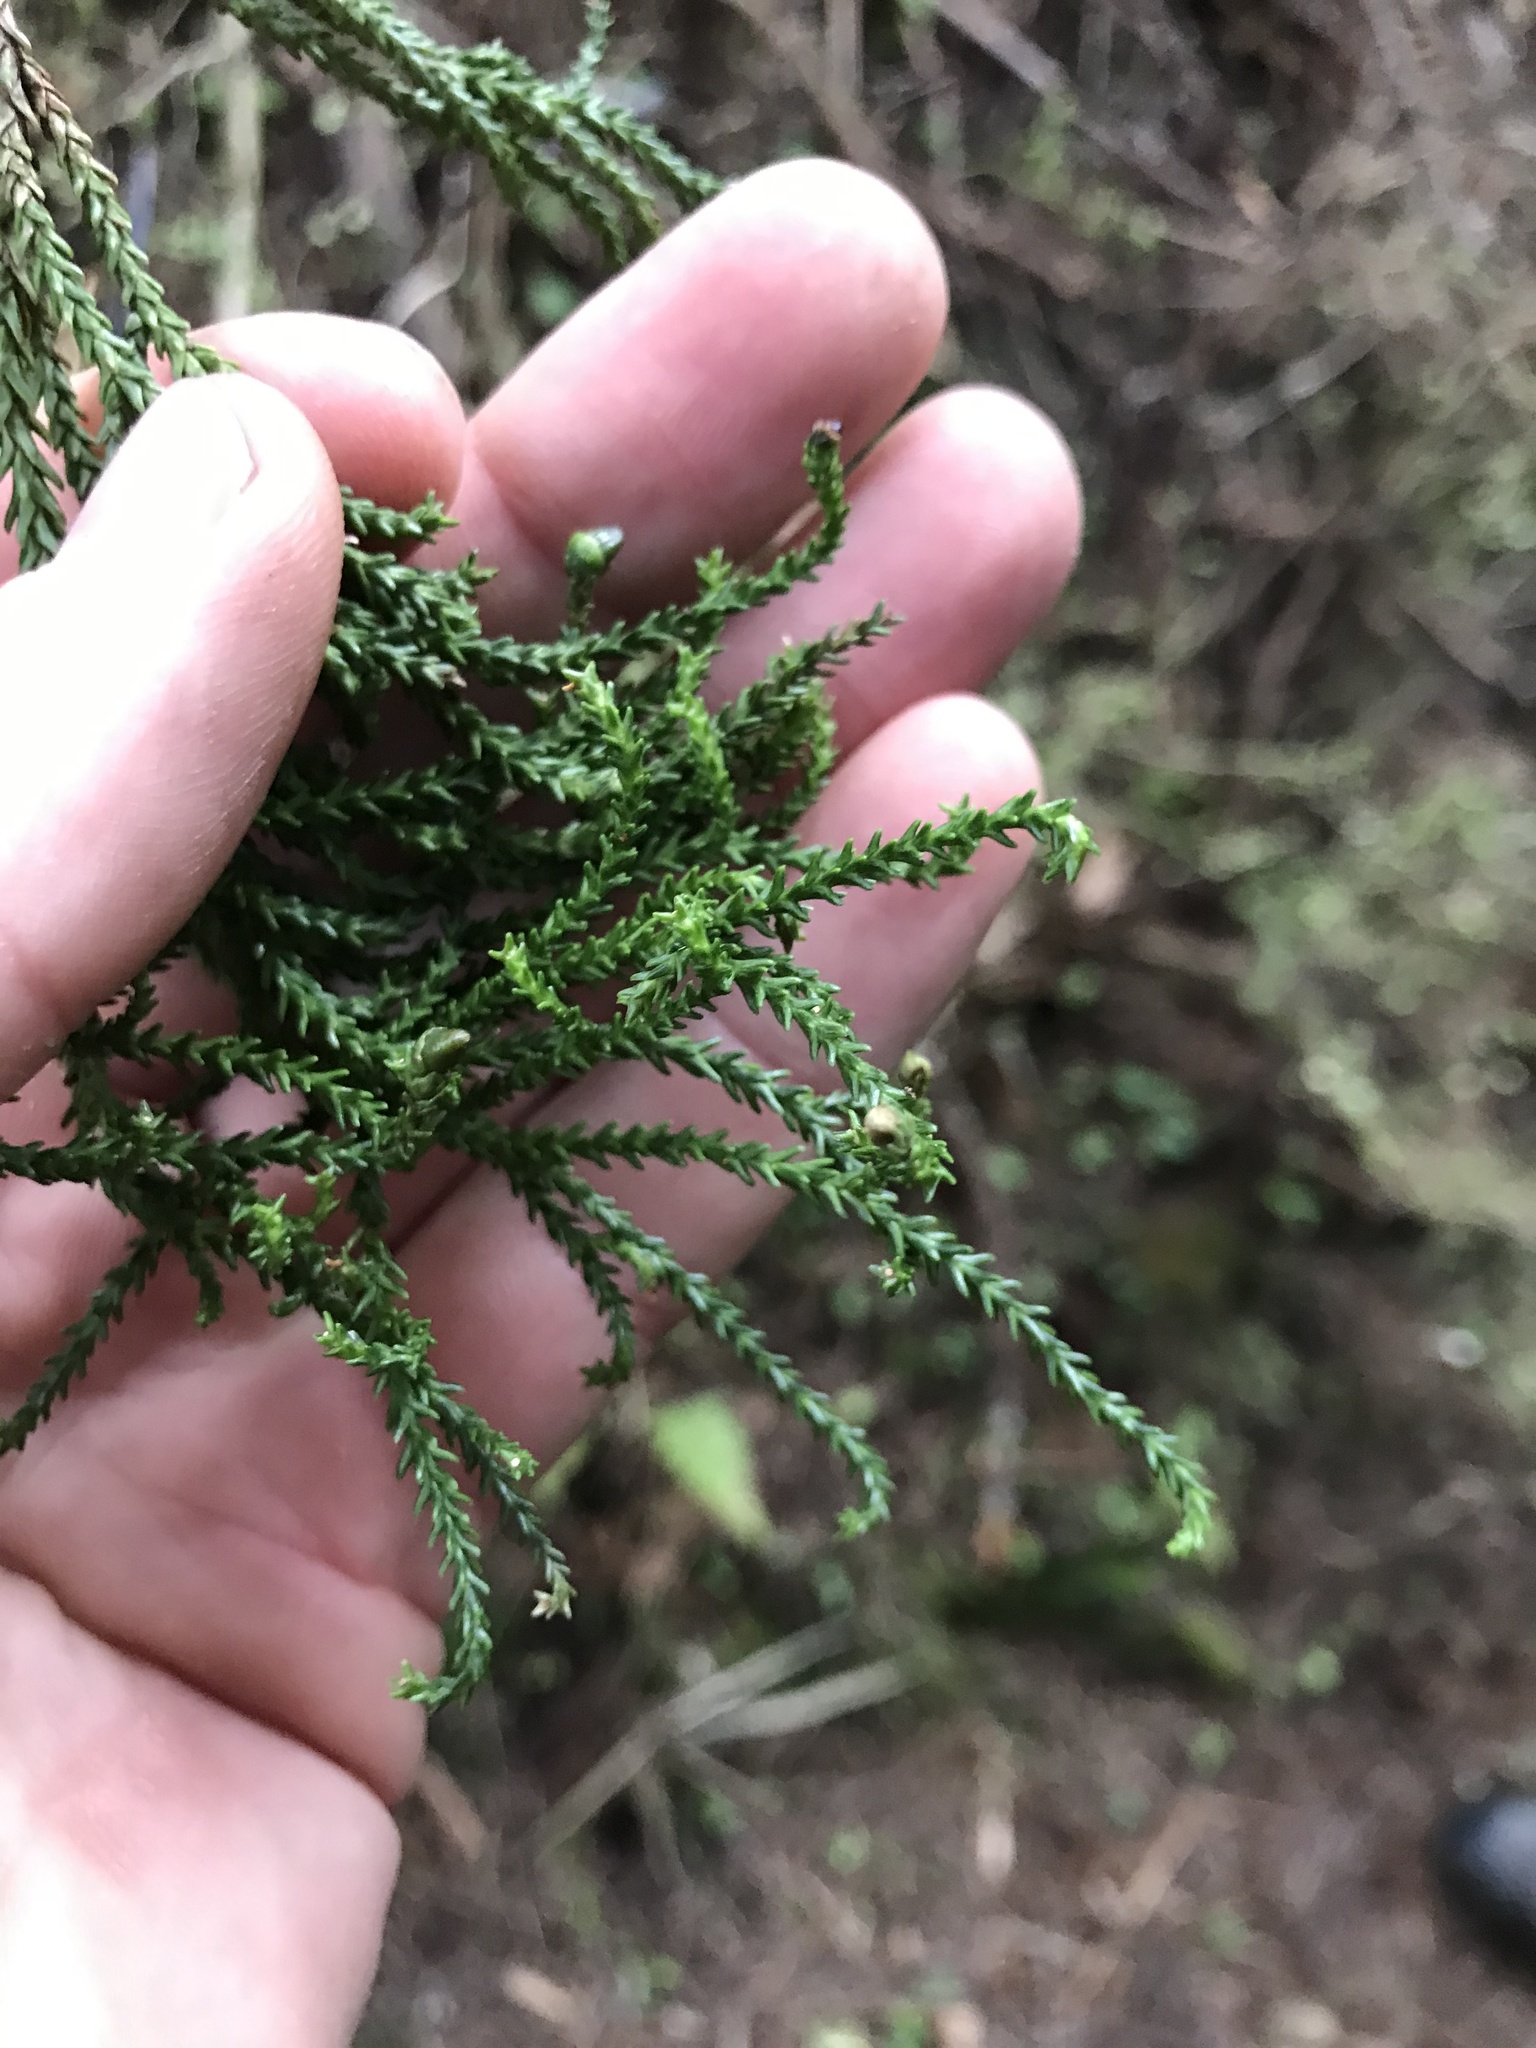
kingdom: Plantae
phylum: Tracheophyta
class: Pinopsida
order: Pinales
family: Podocarpaceae
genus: Dacrydium
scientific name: Dacrydium cupressinum
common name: Red pine
